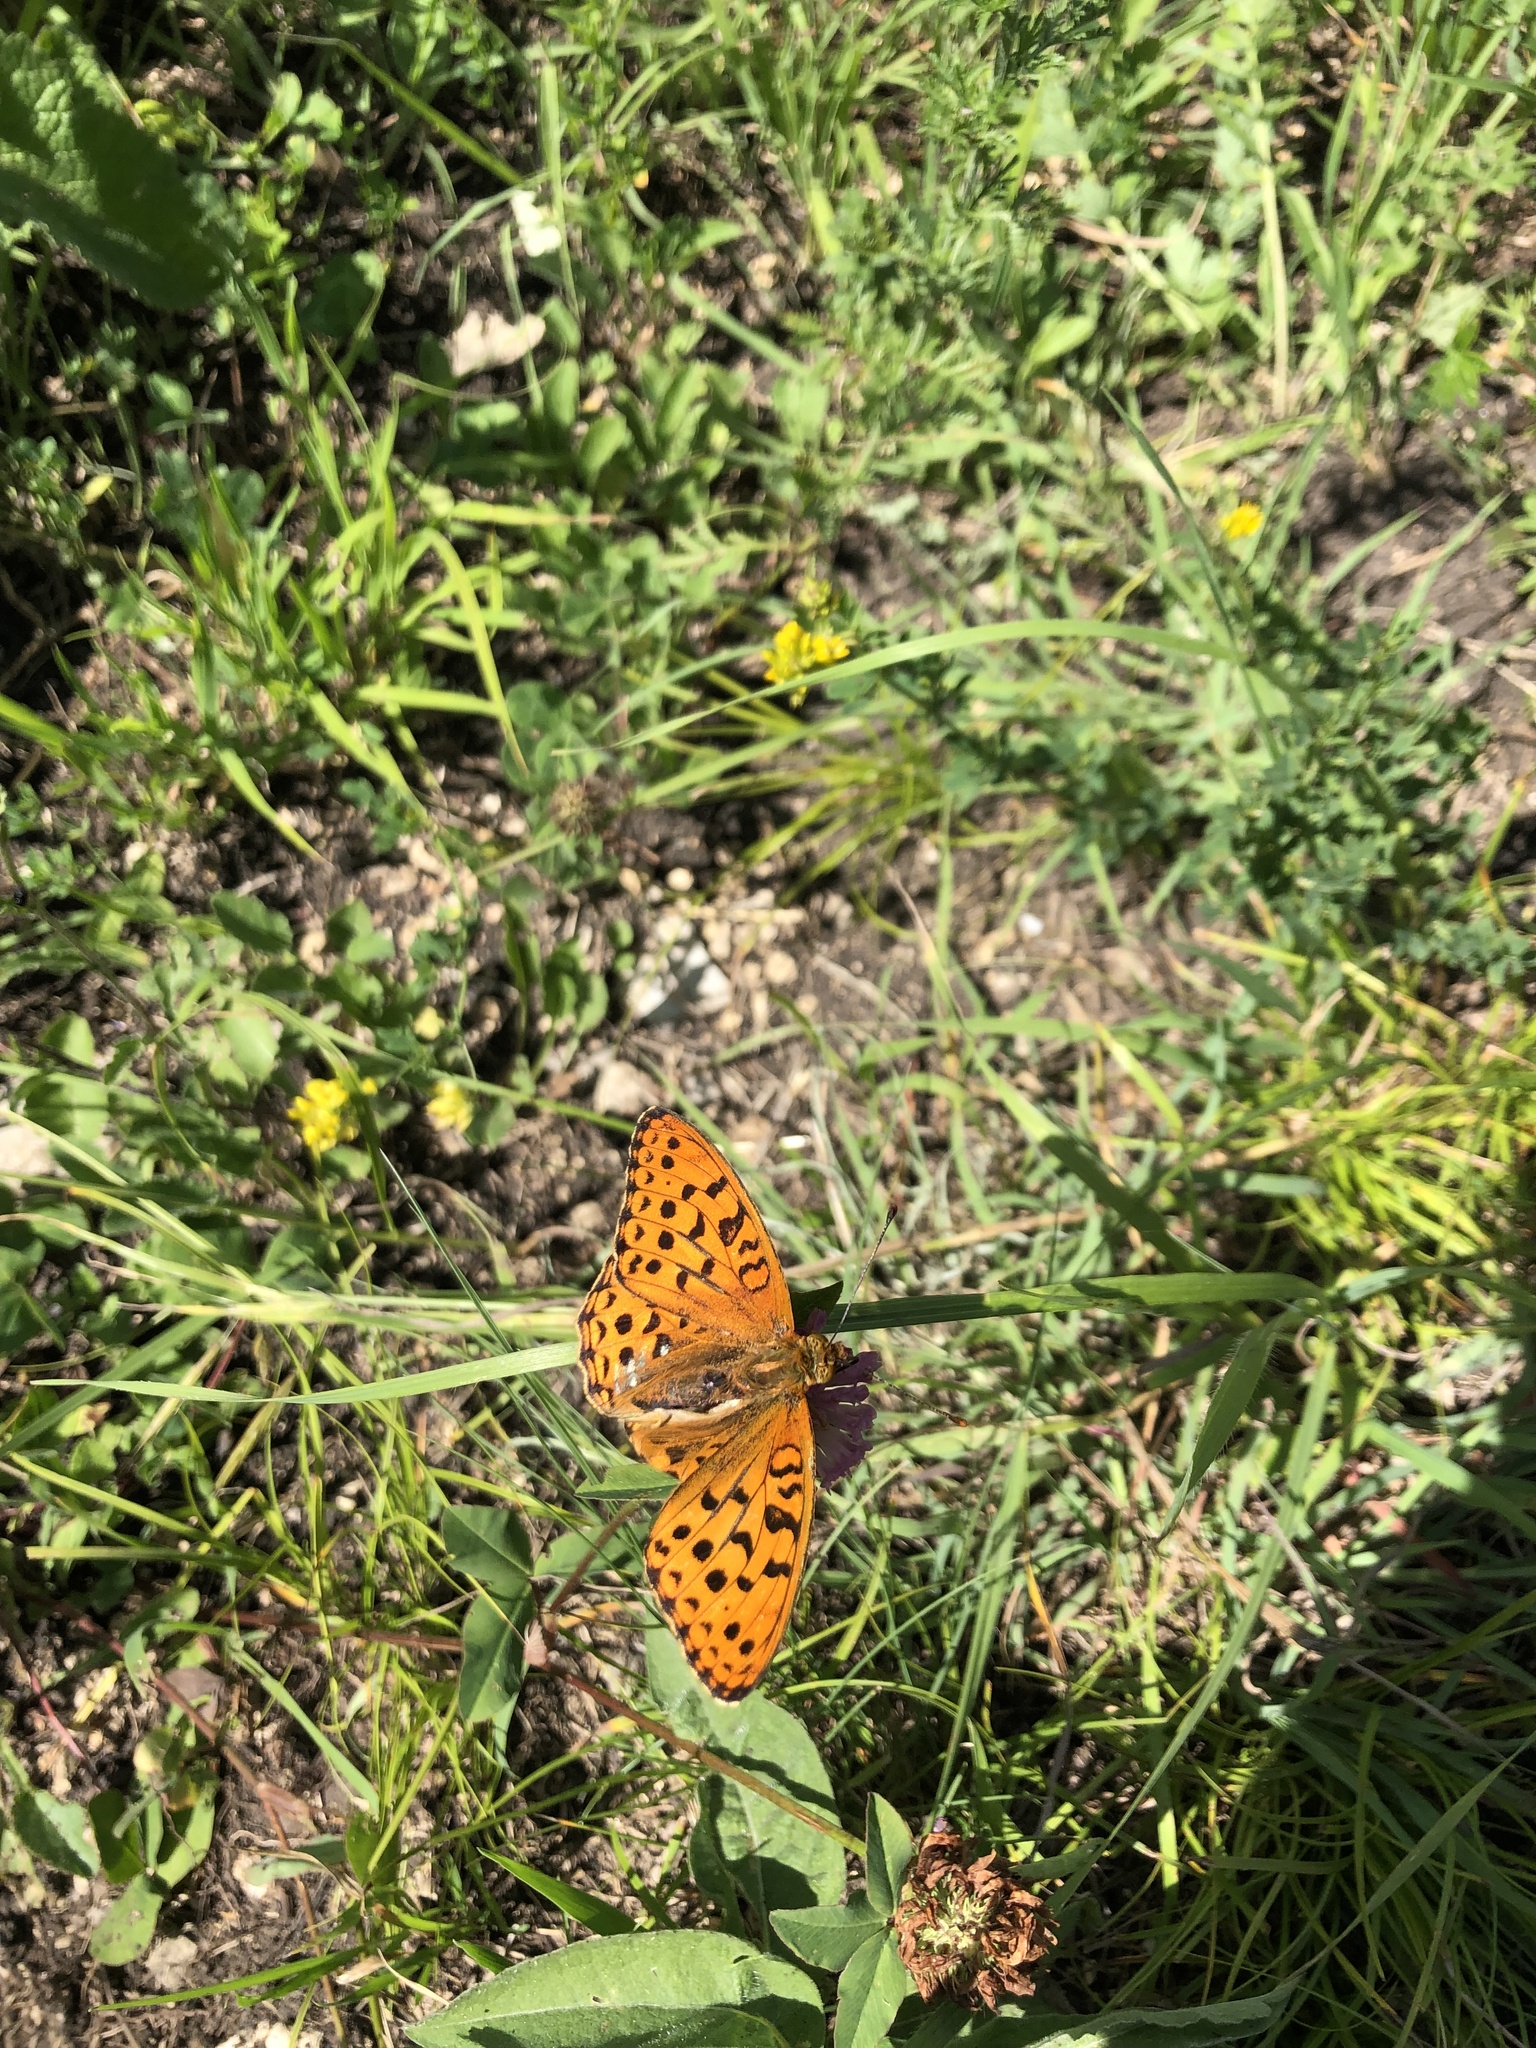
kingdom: Animalia
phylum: Arthropoda
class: Insecta
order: Lepidoptera
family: Nymphalidae
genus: Fabriciana
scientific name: Fabriciana adippe
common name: High brown fritillary
